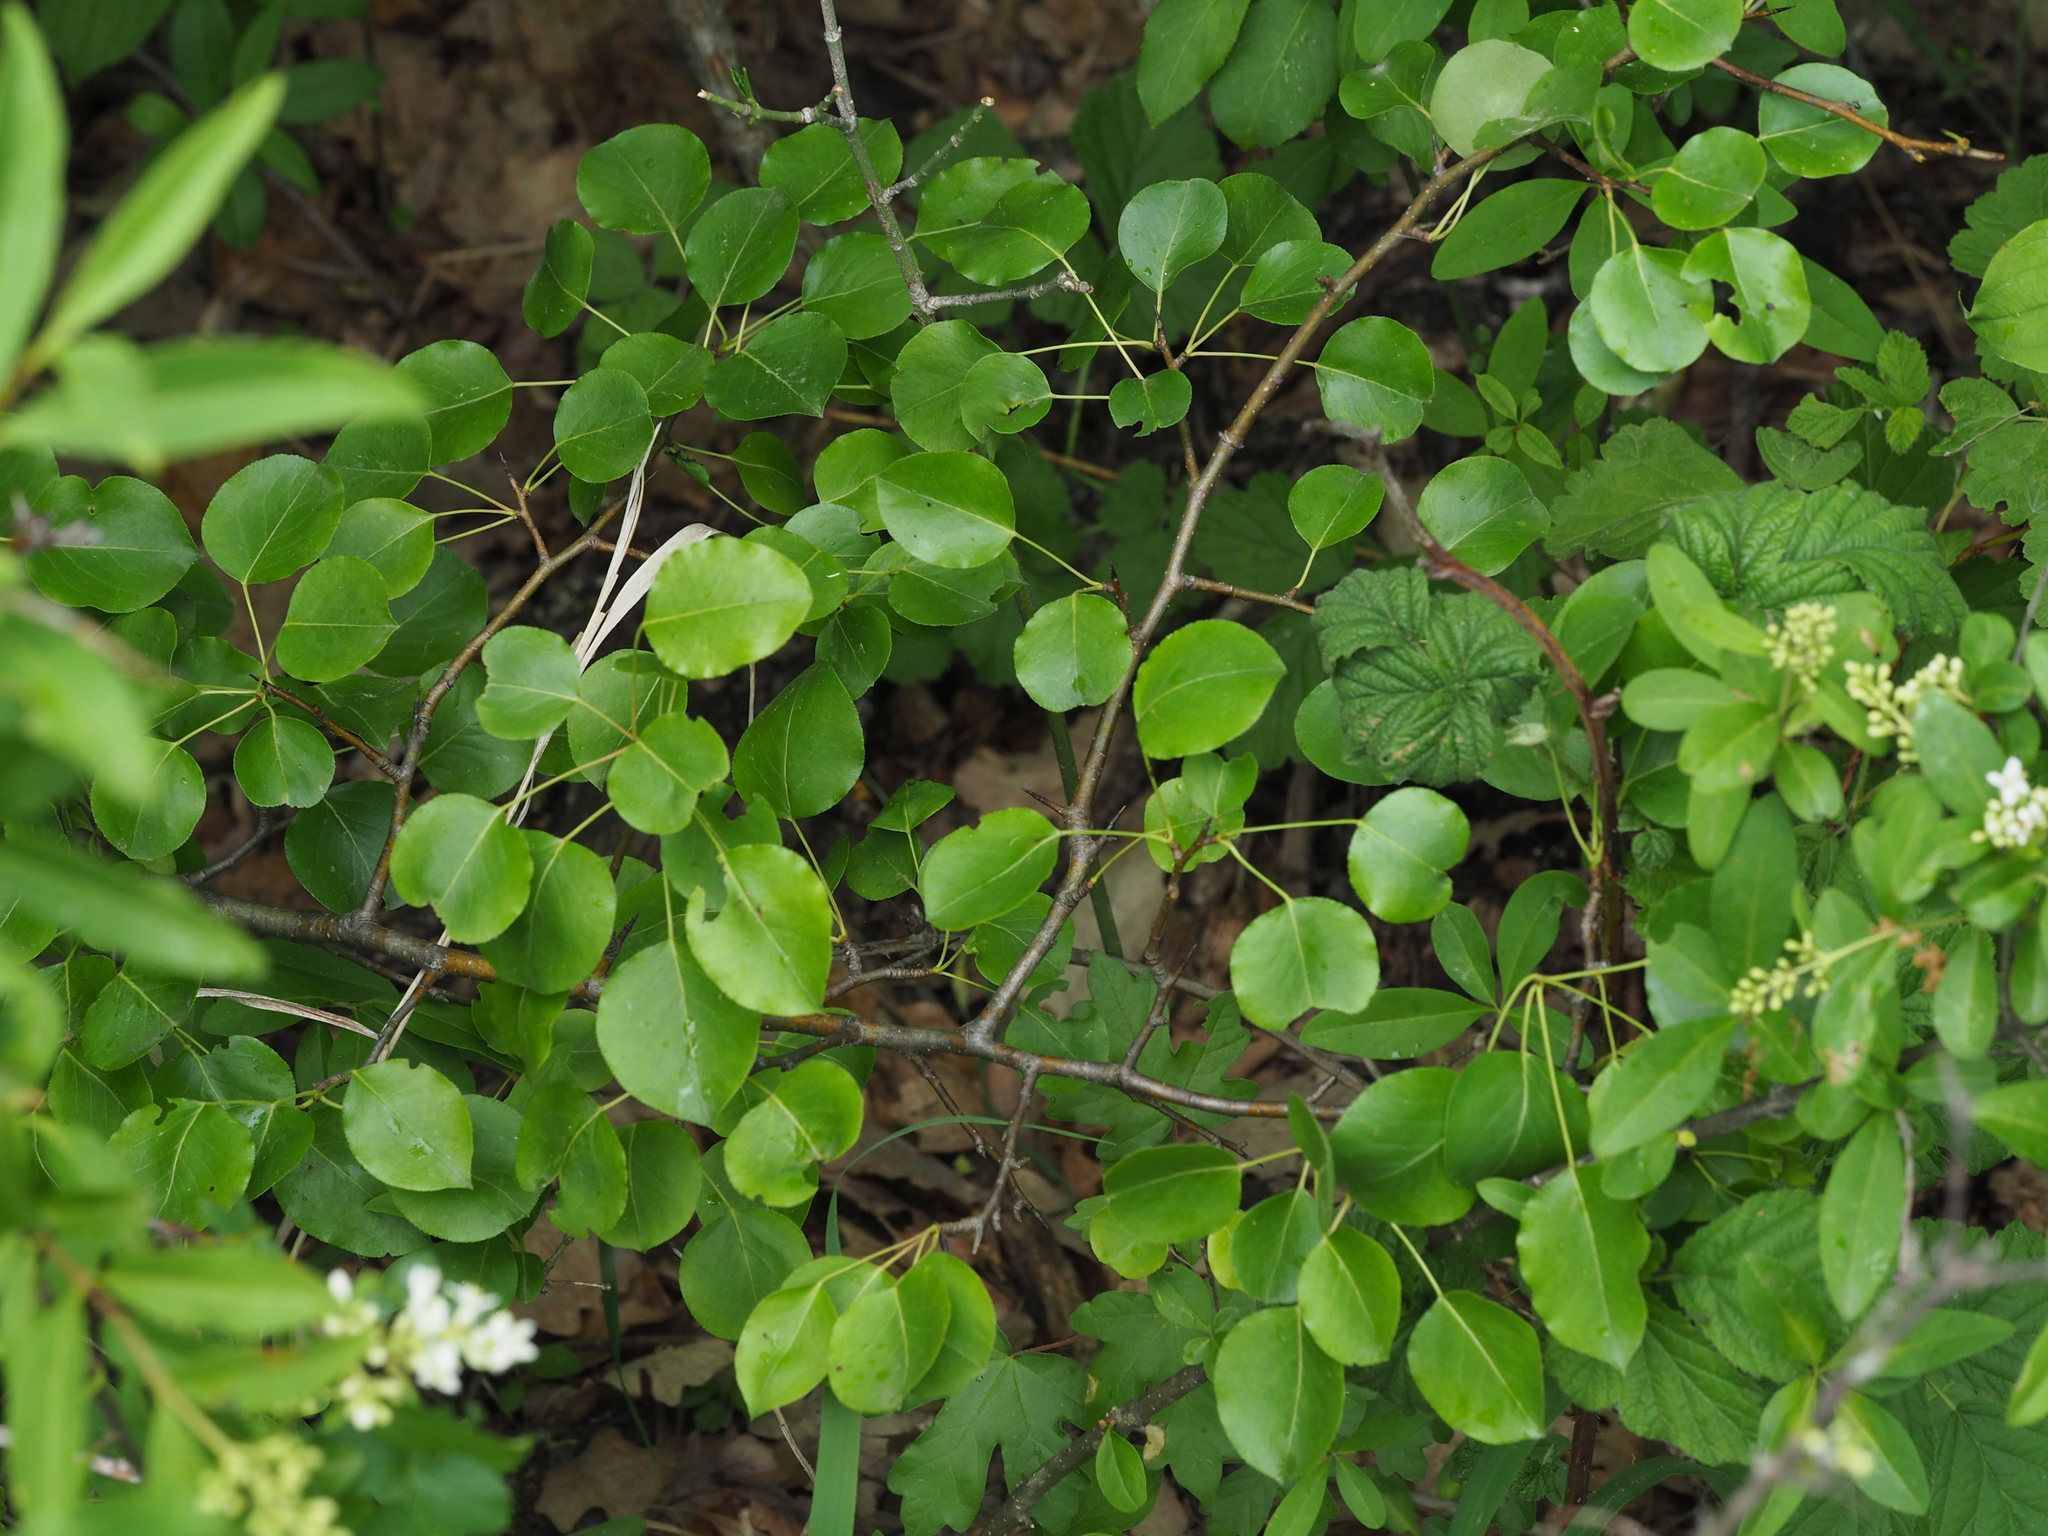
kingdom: Plantae
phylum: Tracheophyta
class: Magnoliopsida
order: Rosales
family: Rosaceae
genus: Pyrus
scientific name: Pyrus
